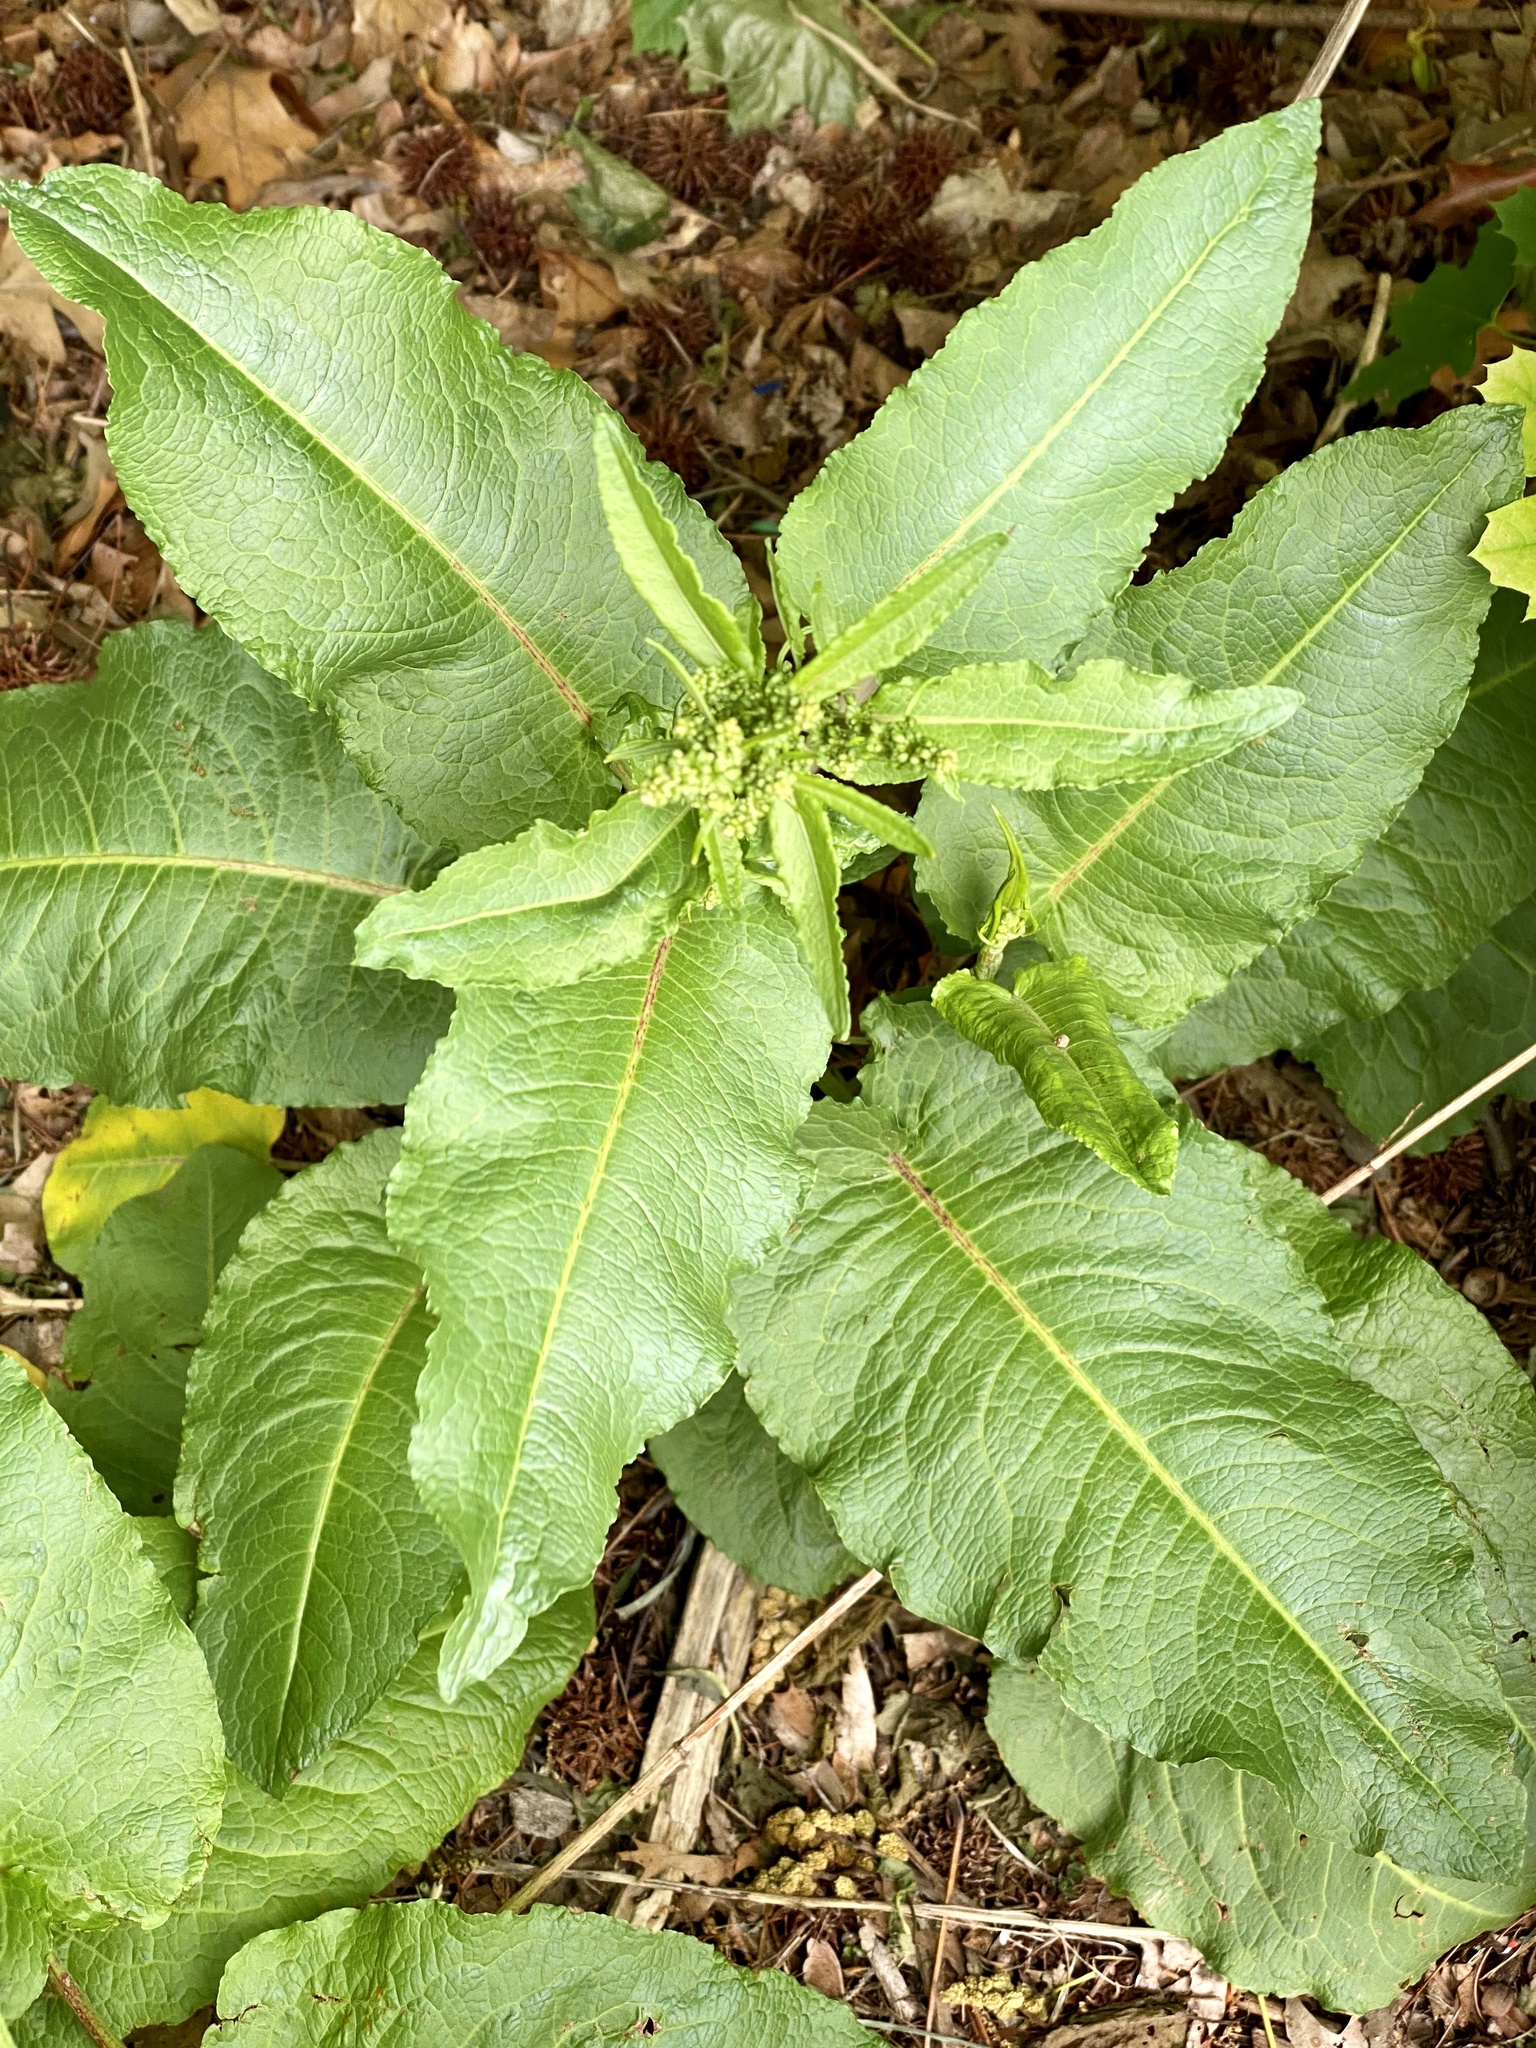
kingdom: Plantae
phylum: Tracheophyta
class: Magnoliopsida
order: Caryophyllales
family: Polygonaceae
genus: Rumex
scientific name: Rumex obtusifolius
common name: Bitter dock
